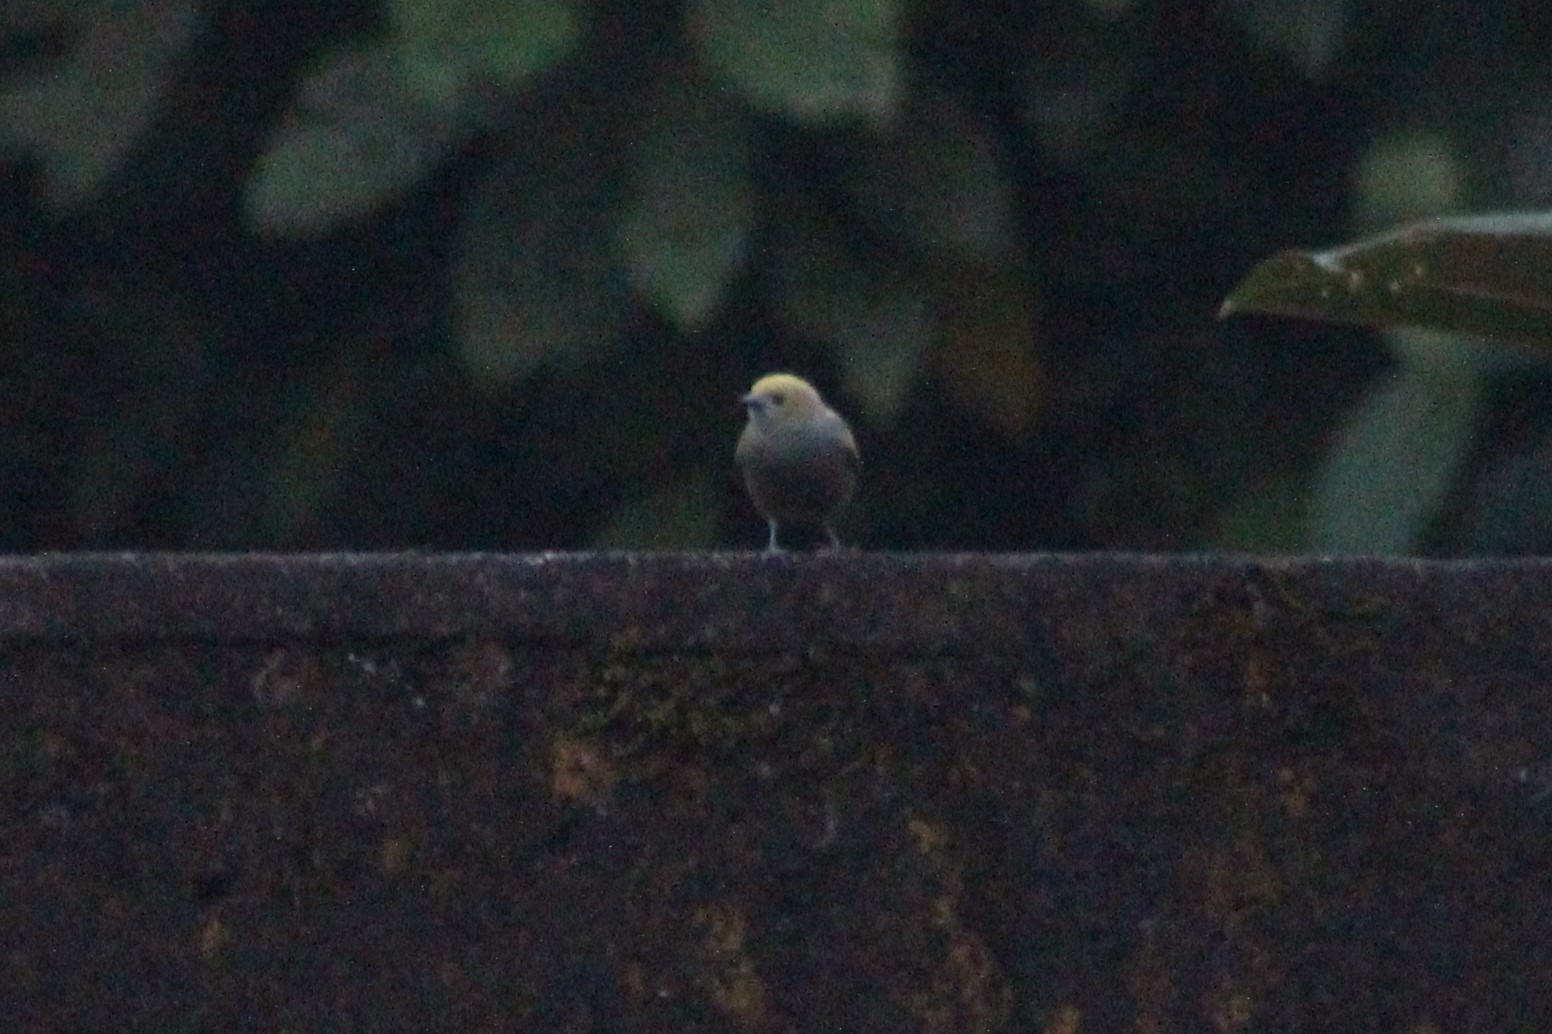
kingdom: Animalia
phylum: Chordata
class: Aves
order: Passeriformes
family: Thraupidae
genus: Thraupis
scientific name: Thraupis palmarum
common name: Palm tanager
